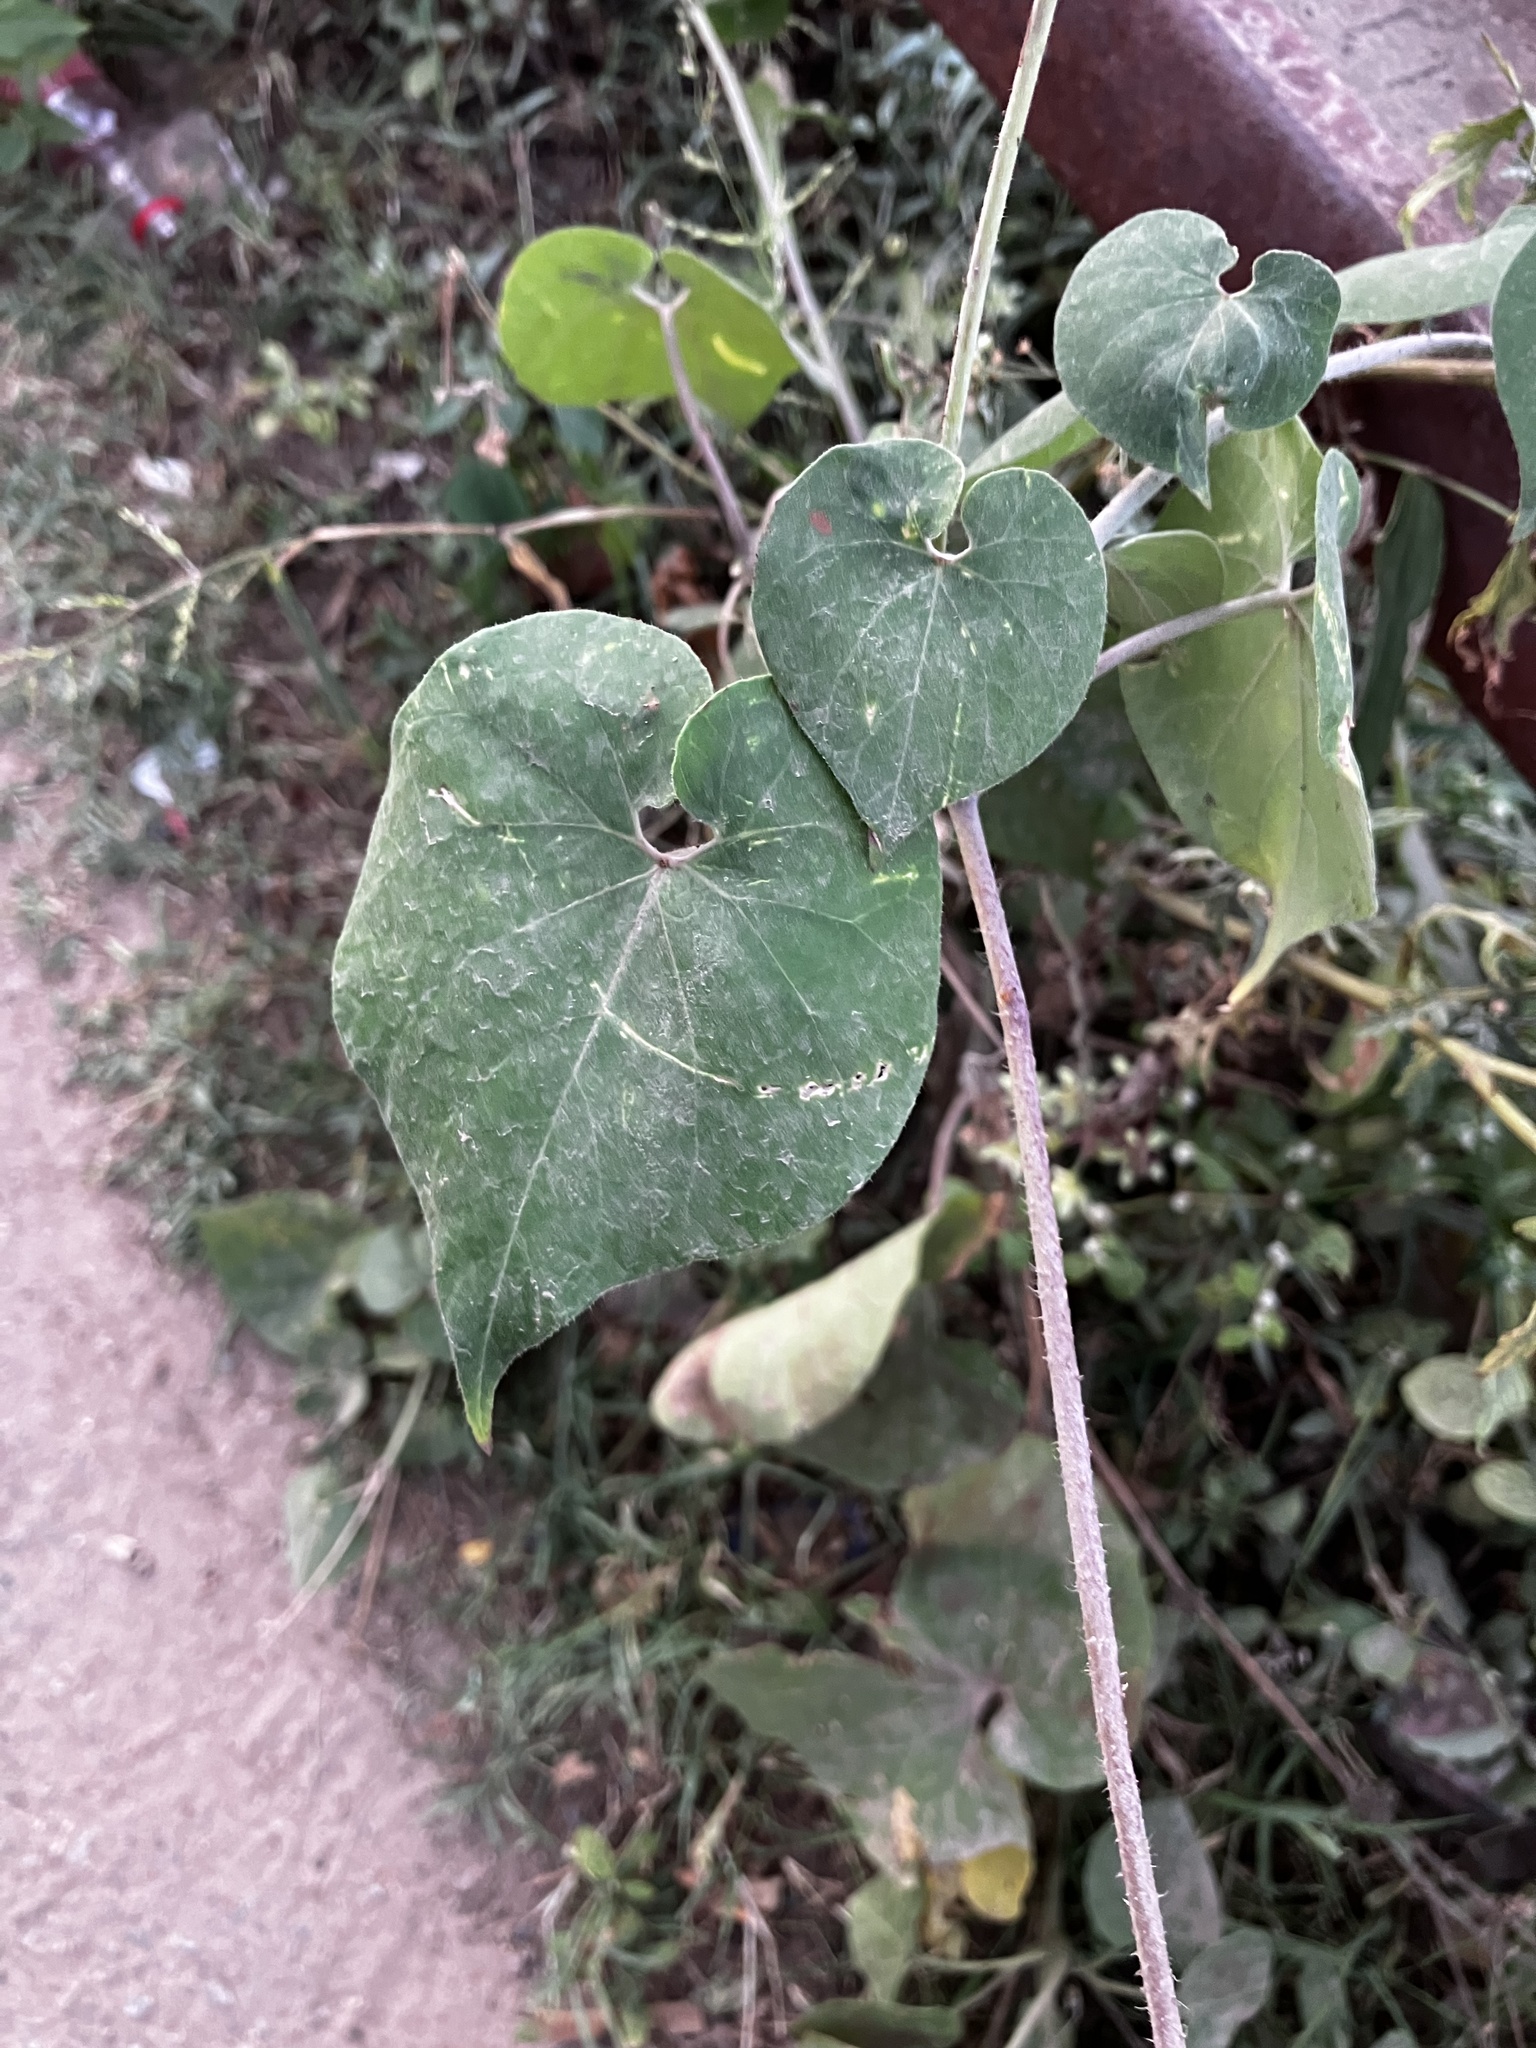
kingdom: Plantae
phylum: Tracheophyta
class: Magnoliopsida
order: Gentianales
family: Apocynaceae
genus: Pergularia
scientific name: Pergularia daemia
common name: Trellis-vine
